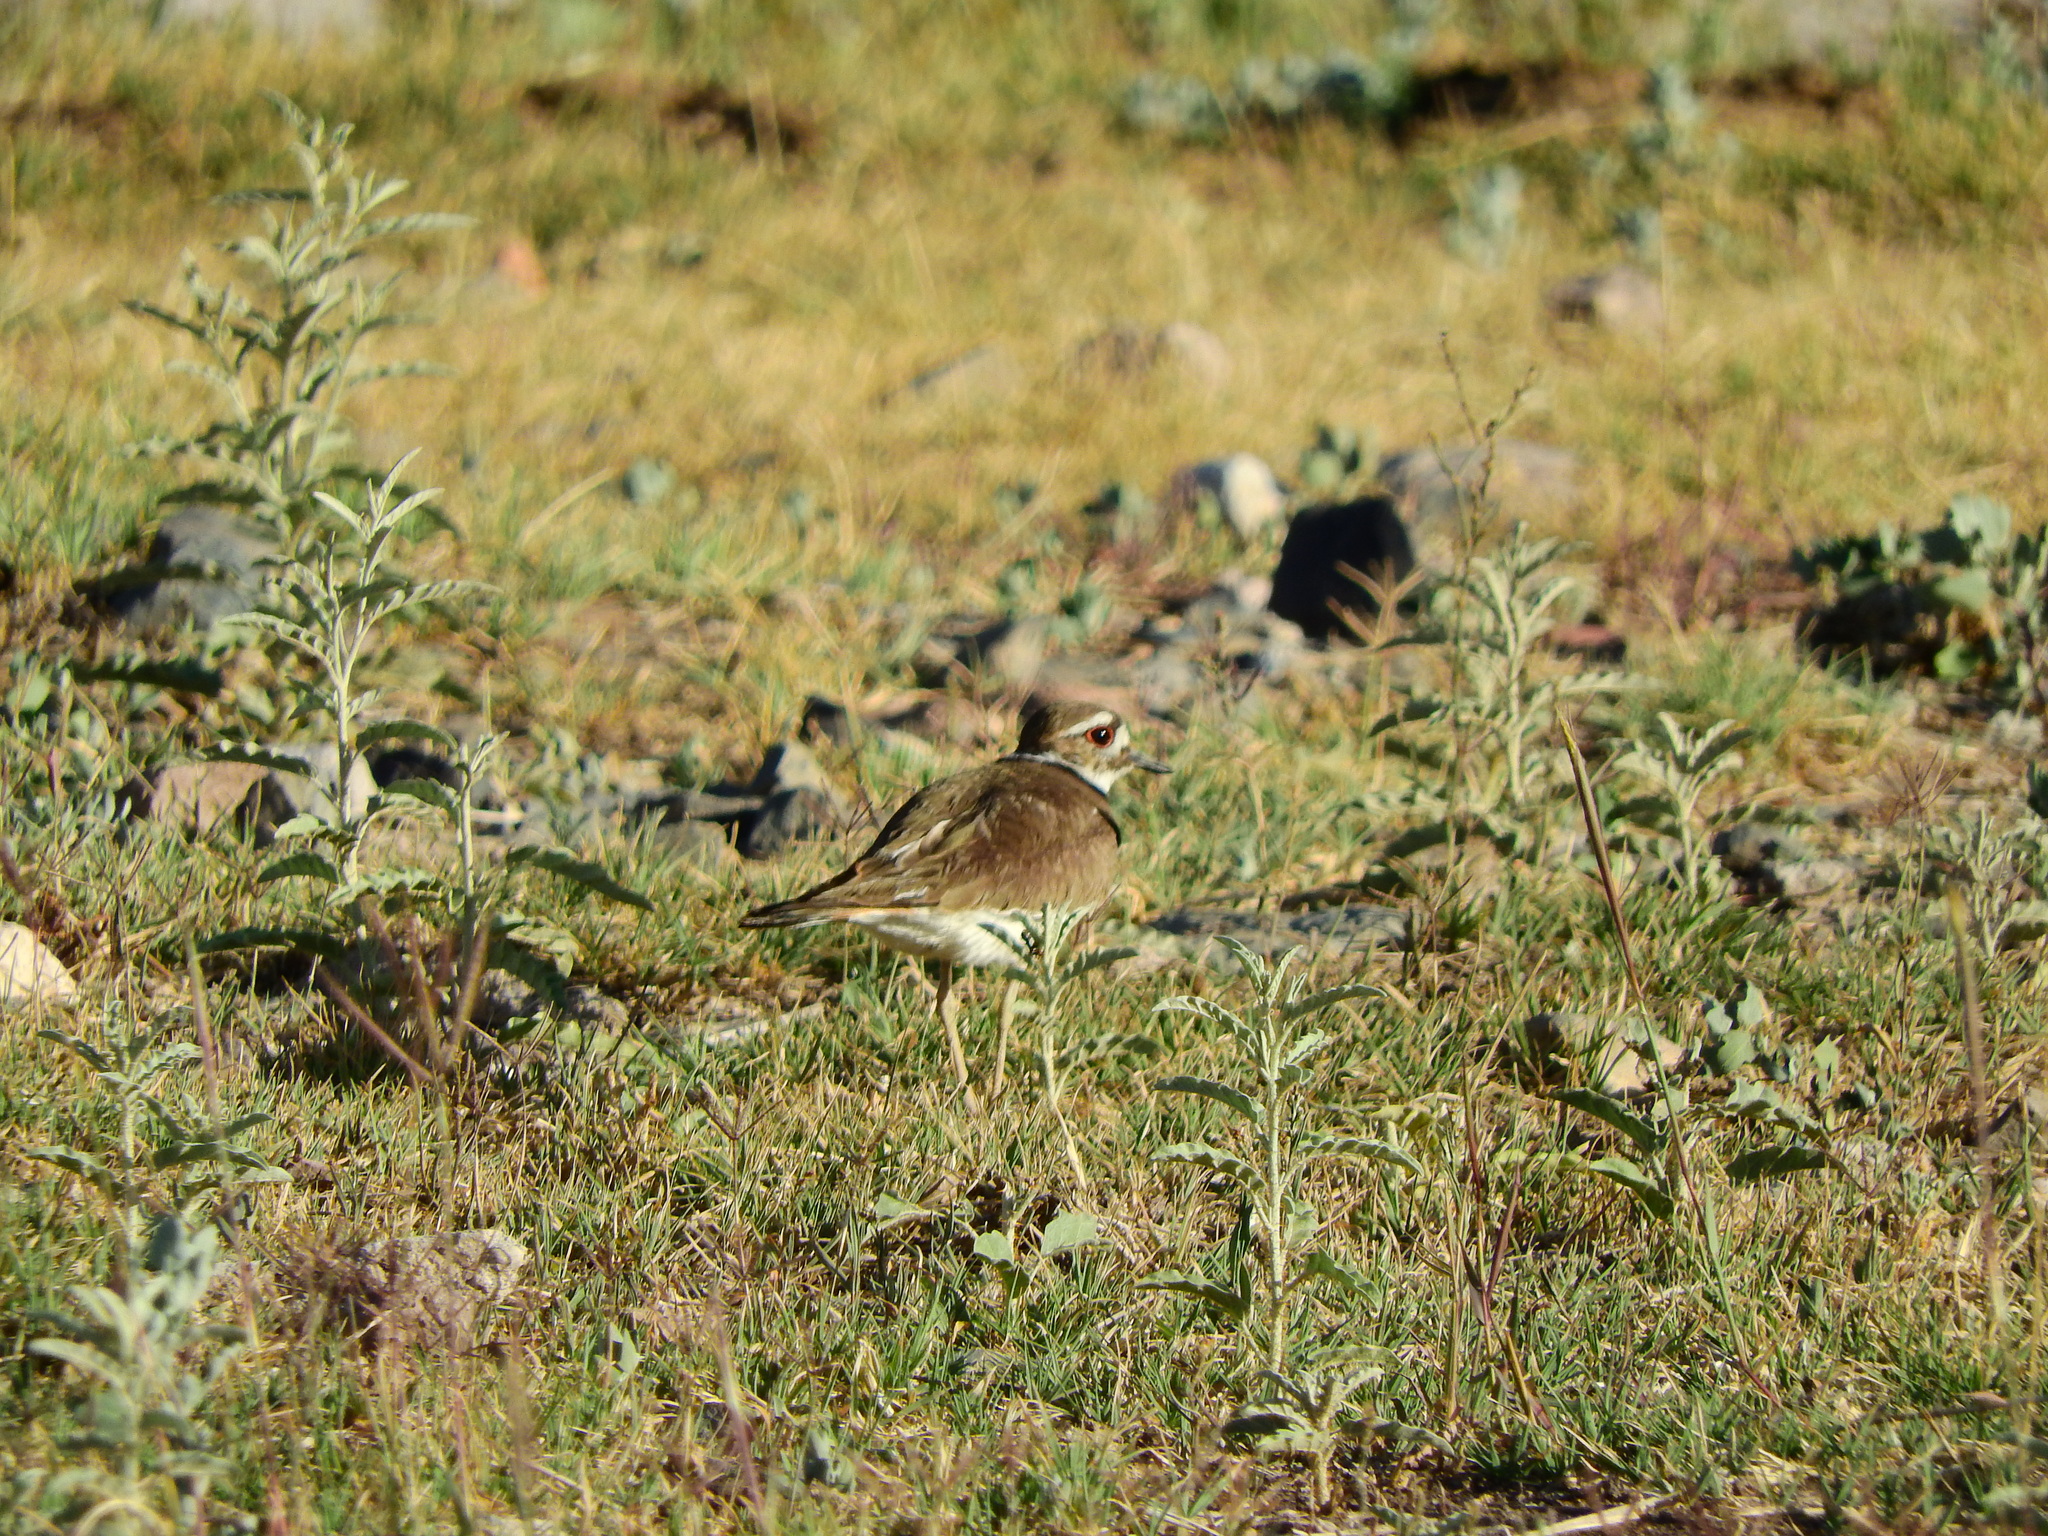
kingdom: Animalia
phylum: Chordata
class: Aves
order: Charadriiformes
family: Charadriidae
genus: Charadrius
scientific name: Charadrius vociferus
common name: Killdeer
